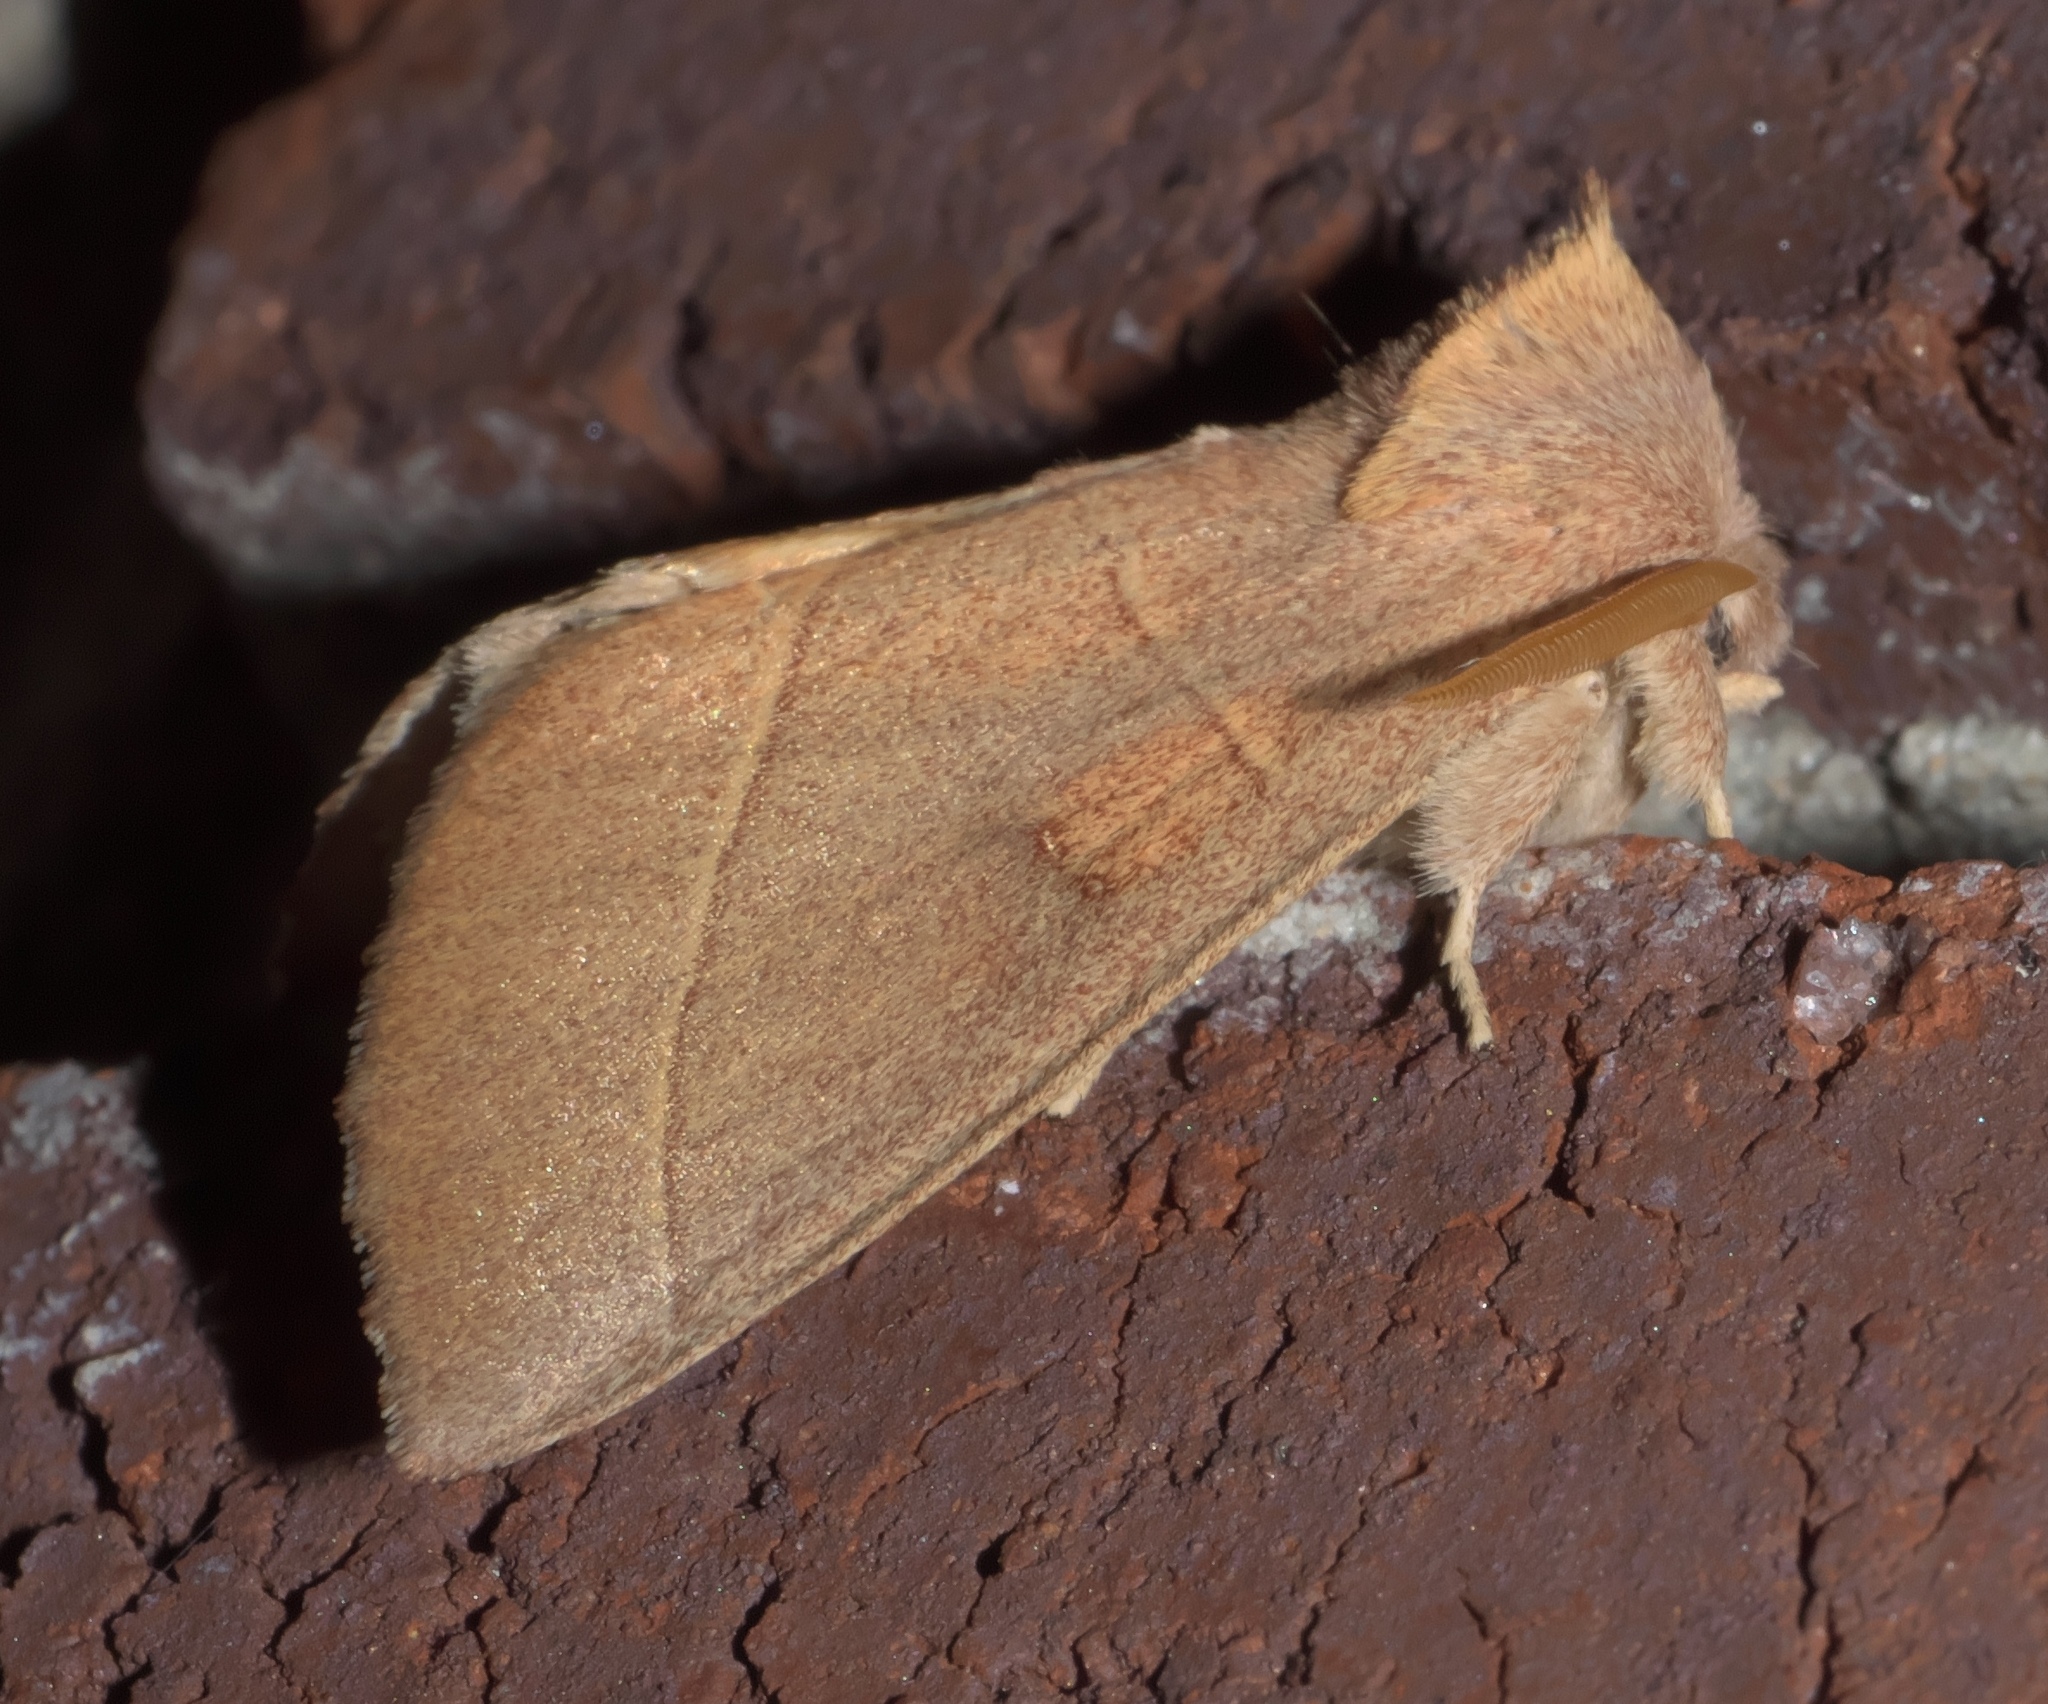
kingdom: Animalia
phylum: Arthropoda
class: Insecta
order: Lepidoptera
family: Notodontidae
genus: Nadata
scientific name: Nadata gibbosa
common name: White-dotted prominent
